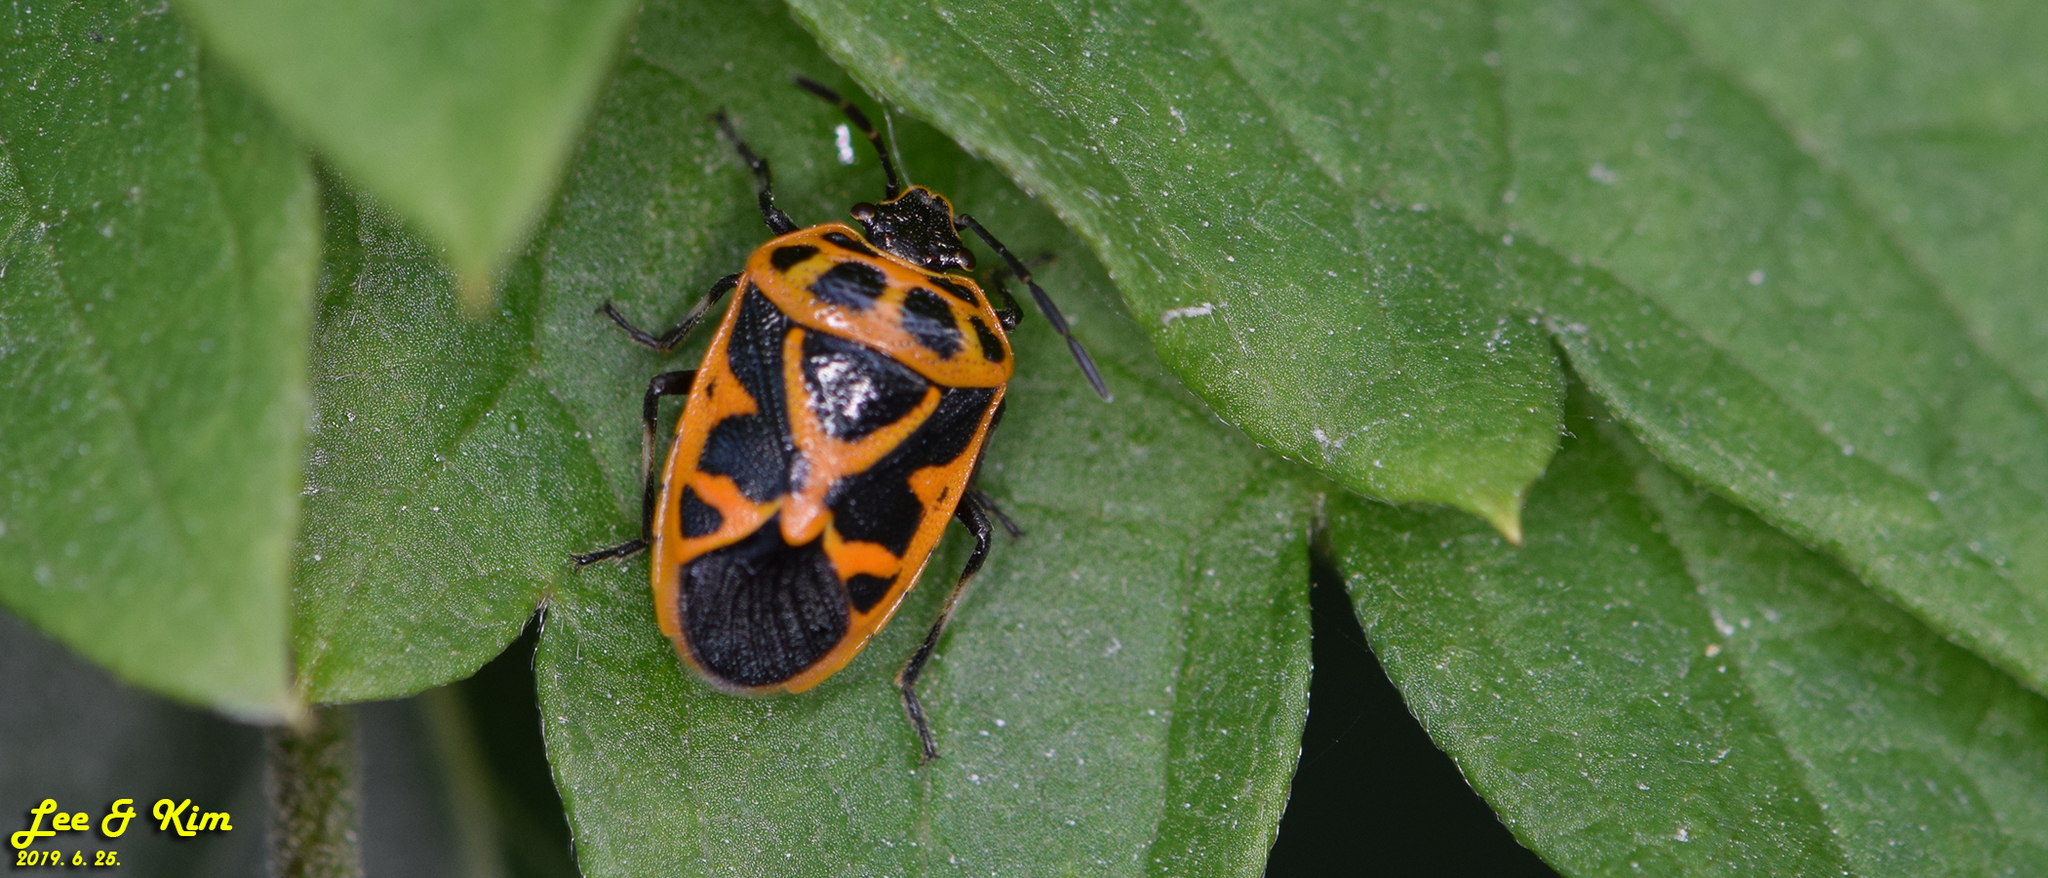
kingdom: Animalia
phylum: Arthropoda
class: Insecta
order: Hemiptera
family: Pentatomidae
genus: Eurydema
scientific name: Eurydema dominulus
